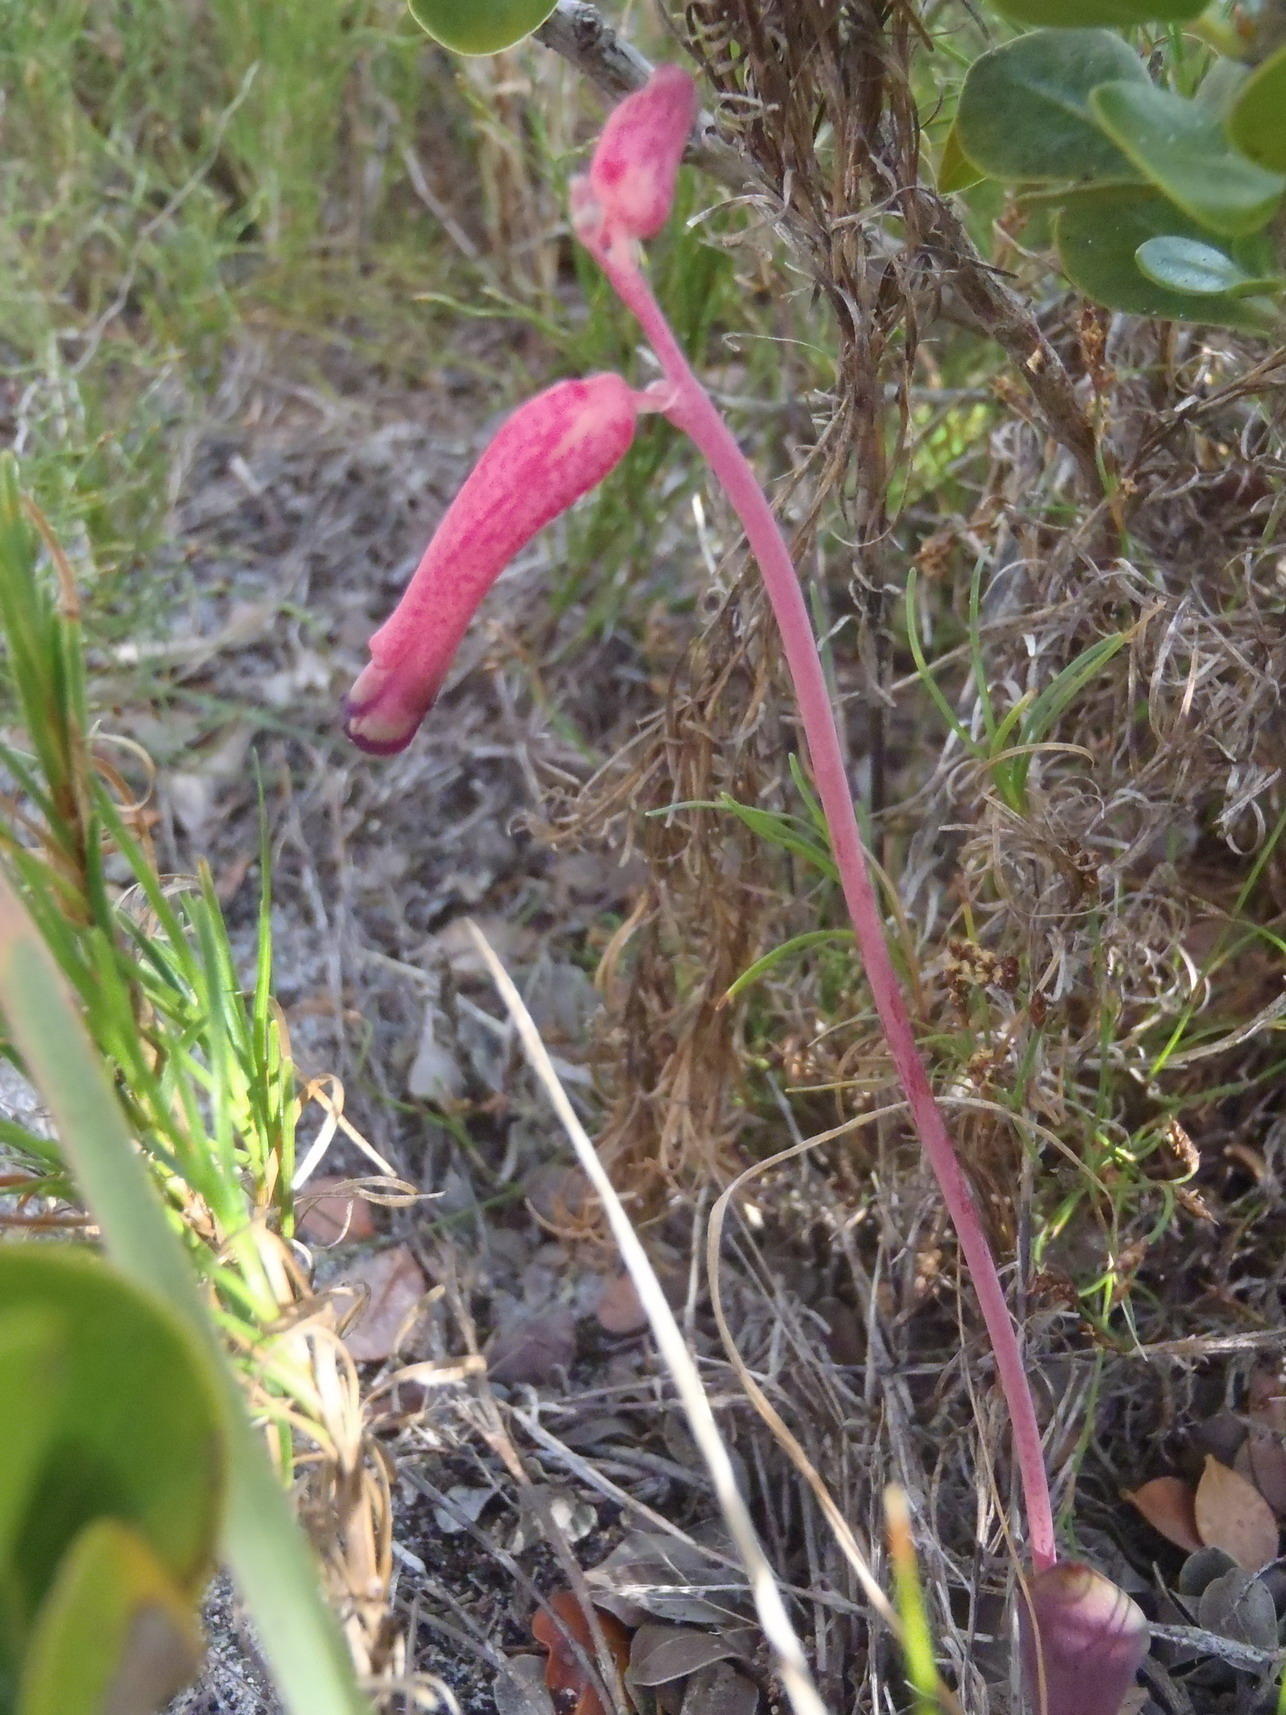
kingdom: Plantae
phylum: Tracheophyta
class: Liliopsida
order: Asparagales
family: Asparagaceae
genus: Lachenalia
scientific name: Lachenalia punctata
